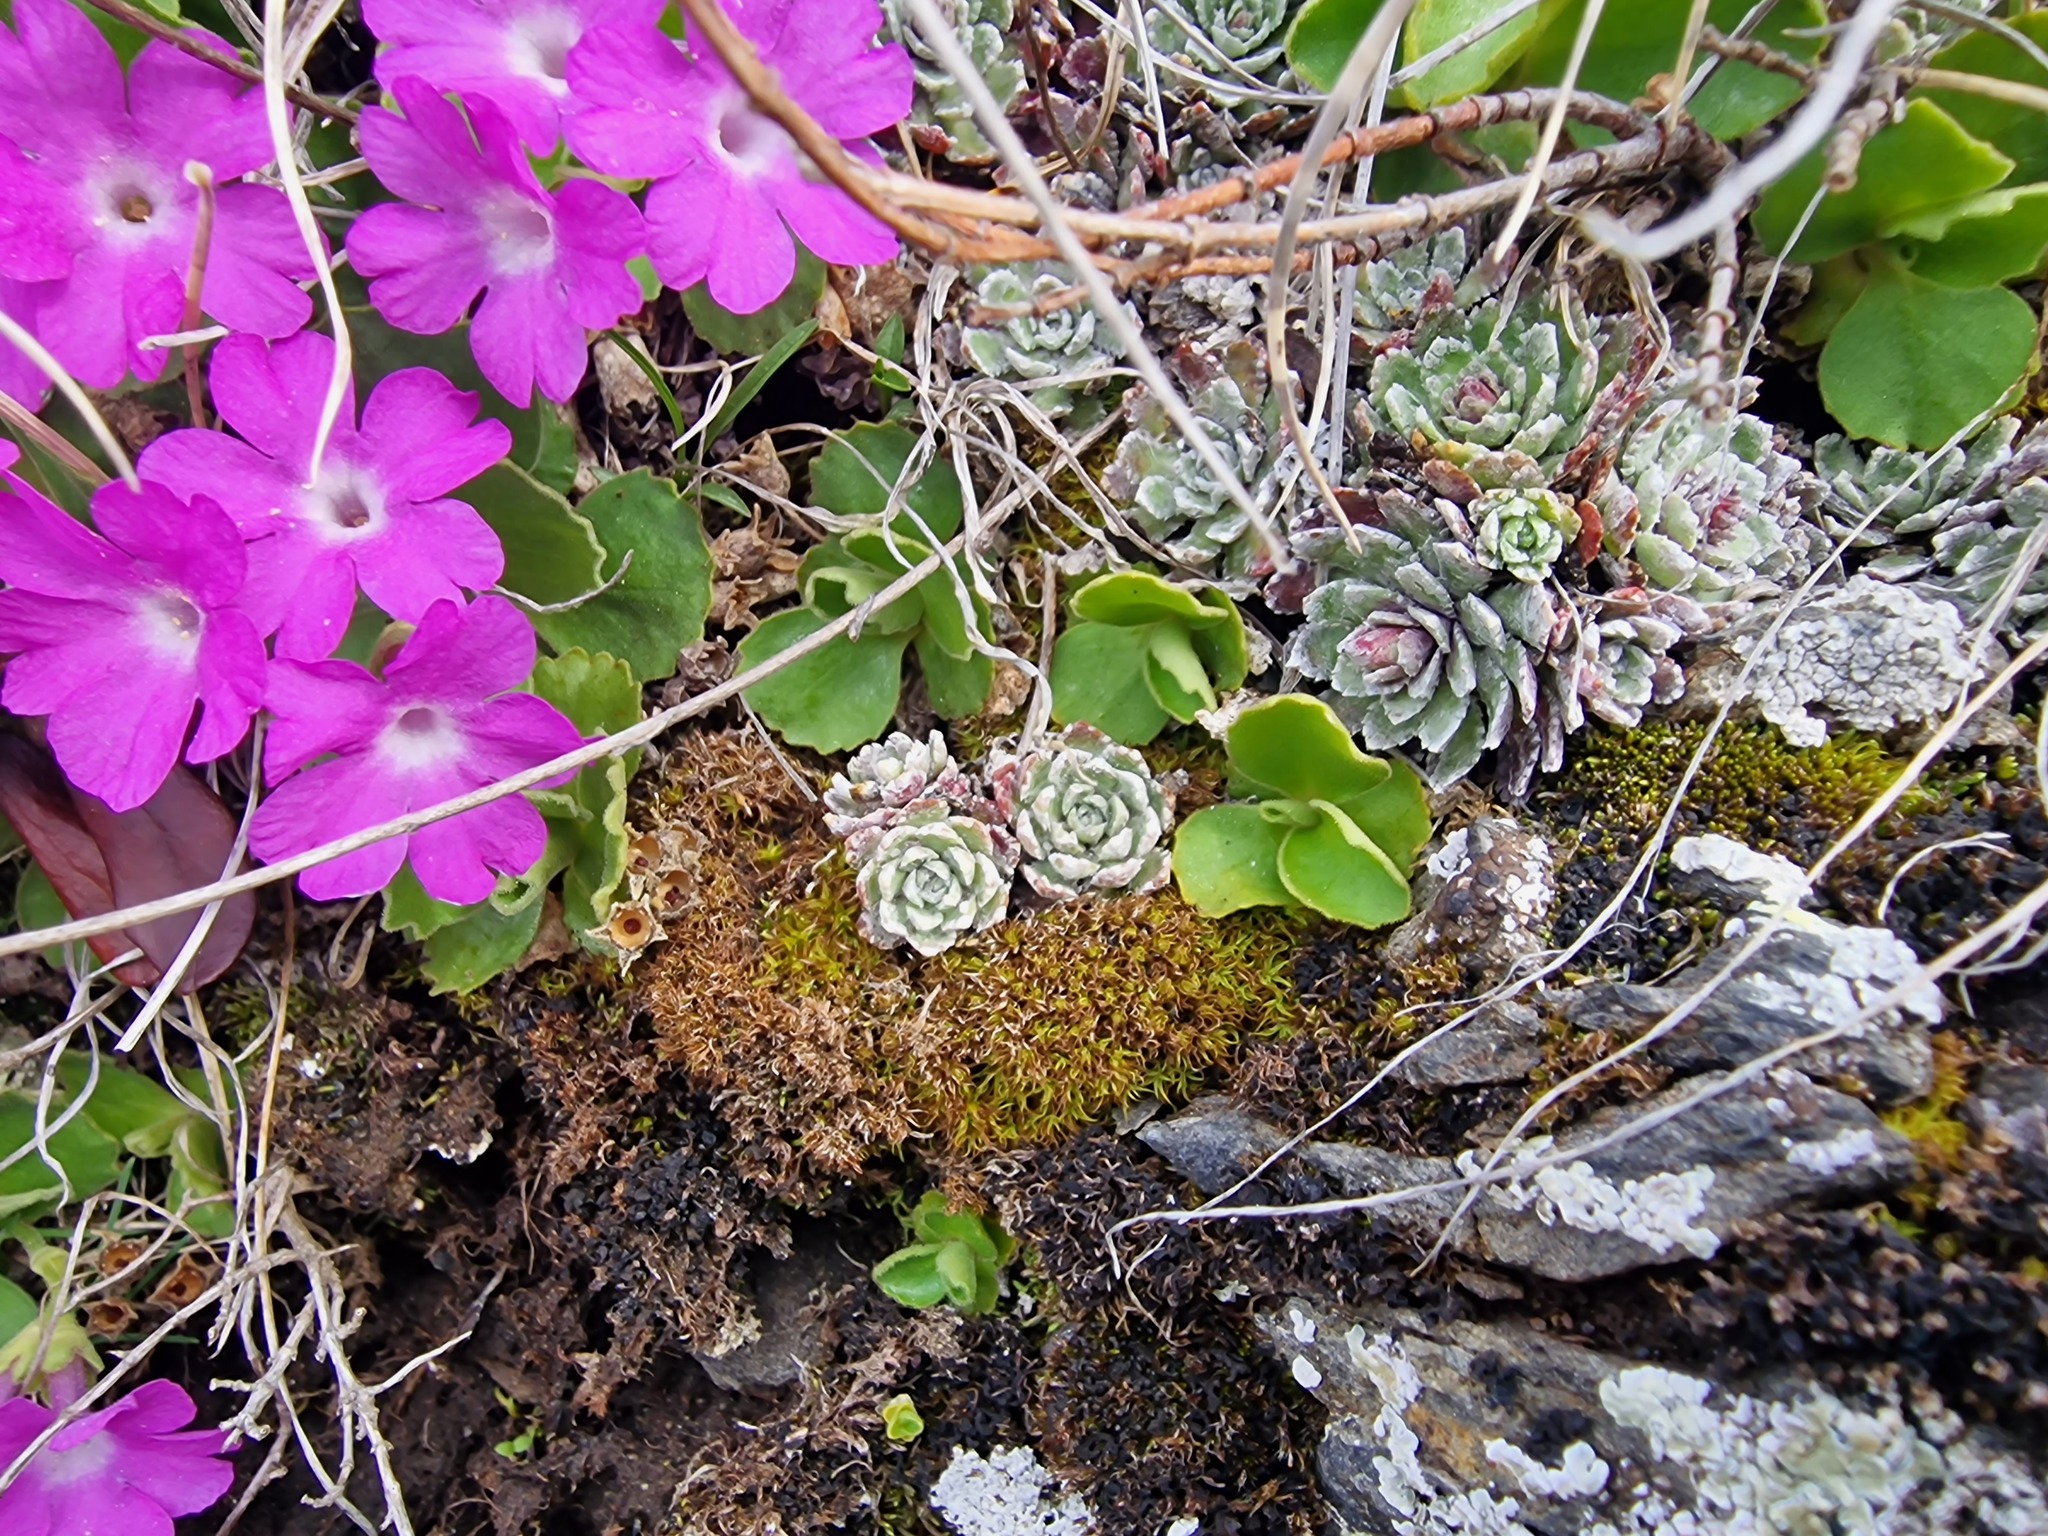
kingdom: Plantae
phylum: Tracheophyta
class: Magnoliopsida
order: Saxifragales
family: Saxifragaceae
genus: Saxifraga
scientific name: Saxifraga paniculata
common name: Livelong saxifrage
